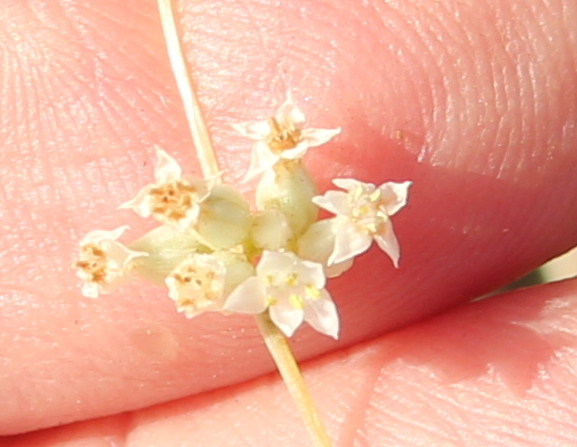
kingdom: Plantae
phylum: Tracheophyta
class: Magnoliopsida
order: Solanales
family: Convolvulaceae
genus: Cuscuta
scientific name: Cuscuta subinclusa
